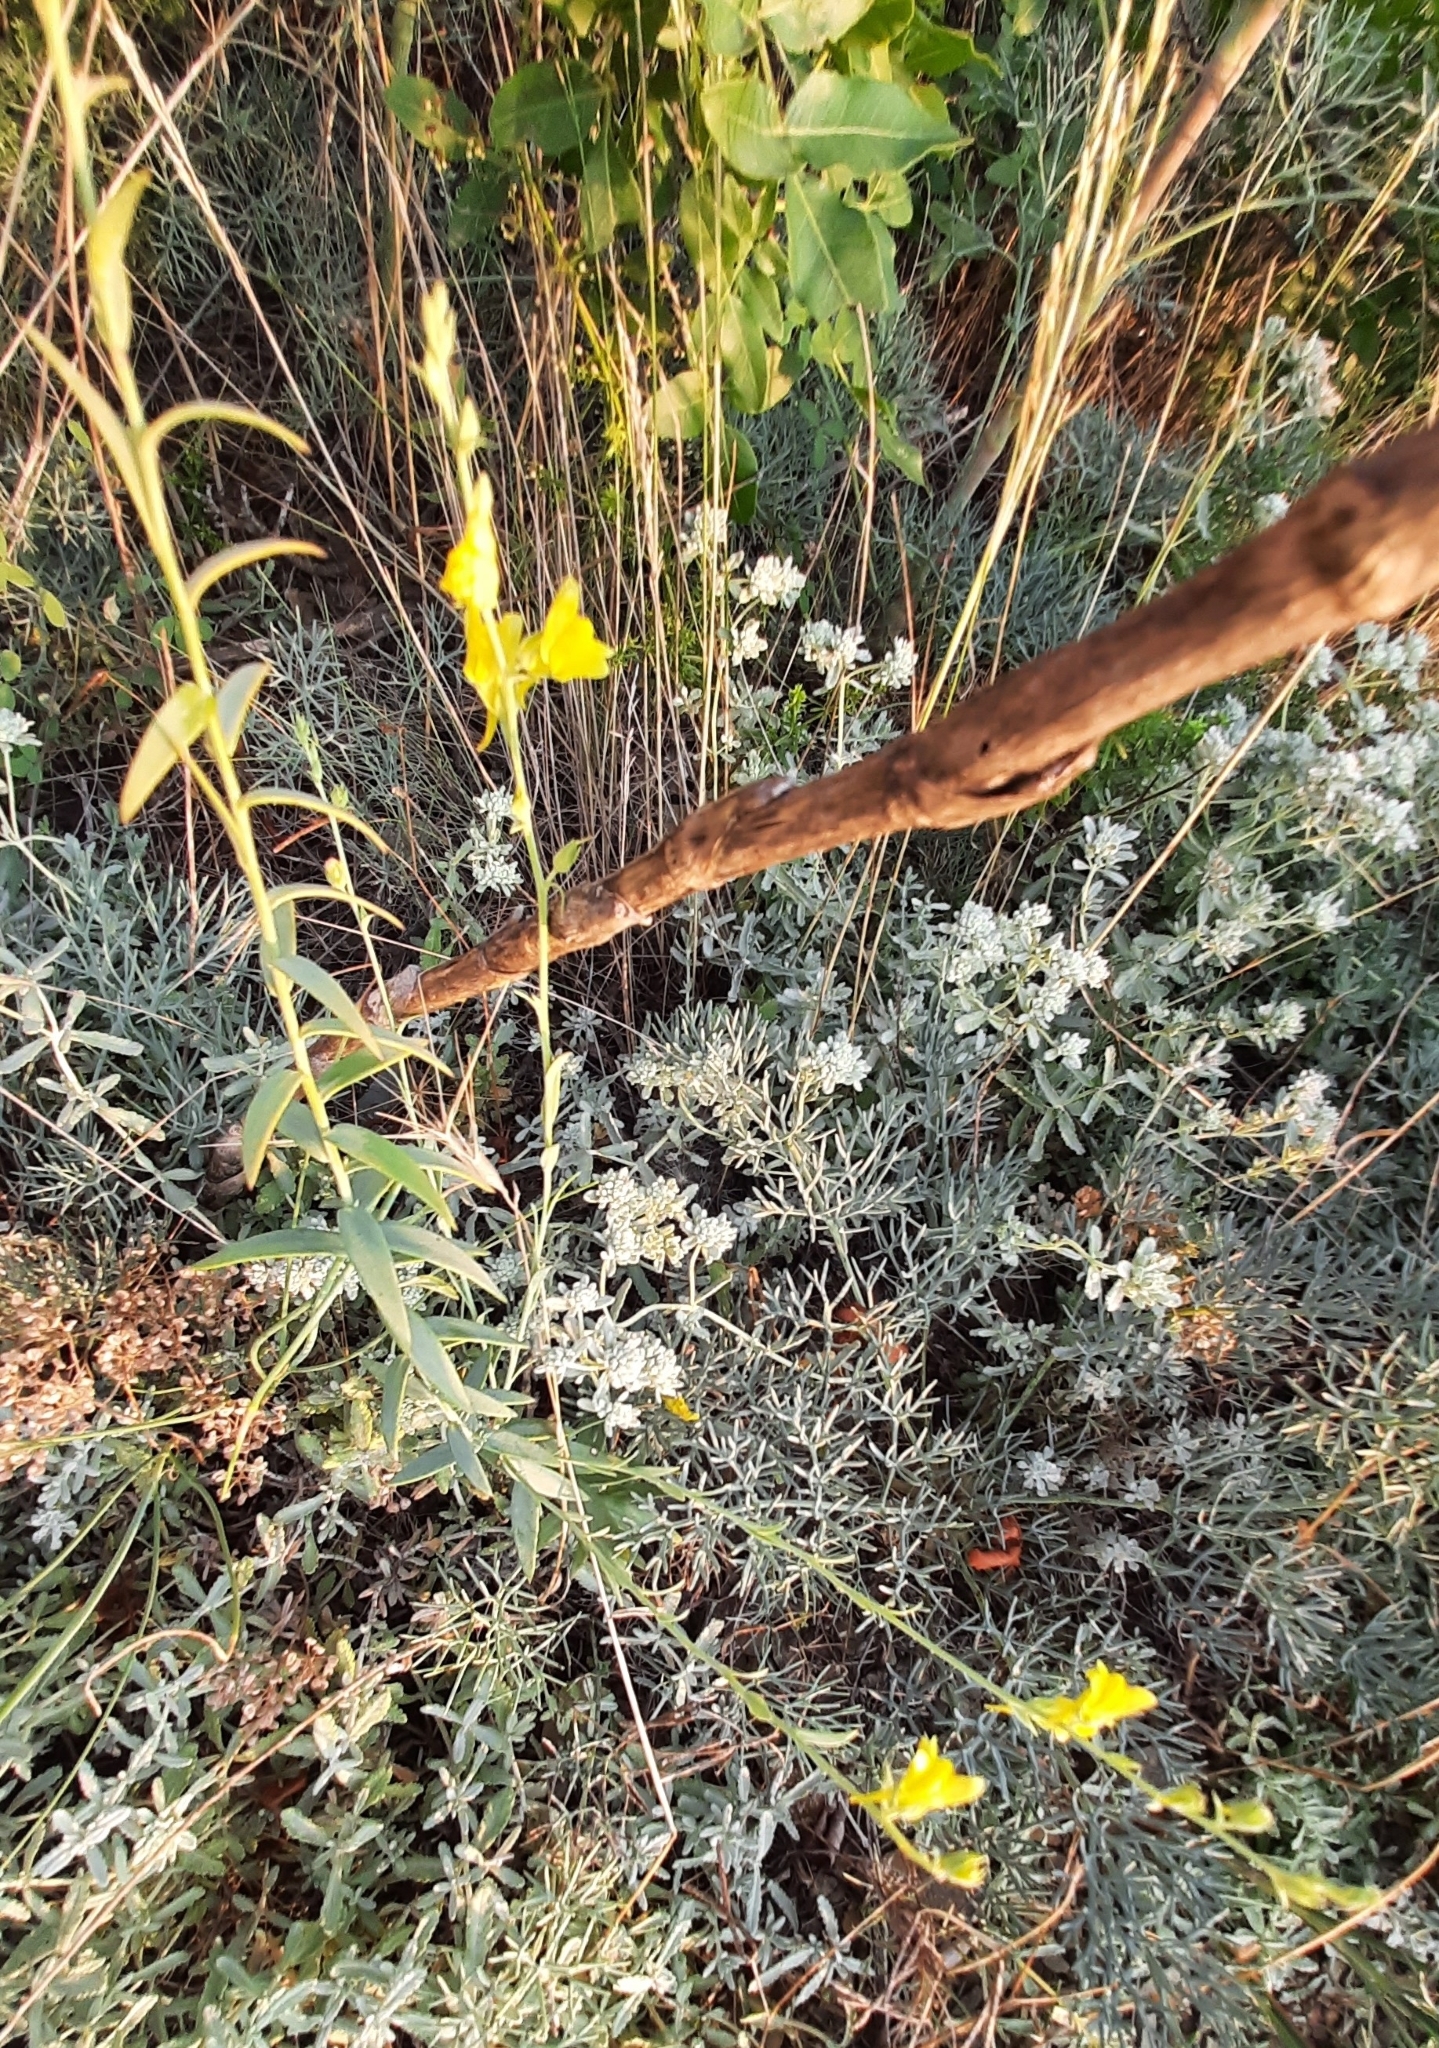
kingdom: Plantae
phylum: Tracheophyta
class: Magnoliopsida
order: Lamiales
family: Plantaginaceae
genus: Linaria
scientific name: Linaria genistifolia
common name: Broomleaf toadflax
